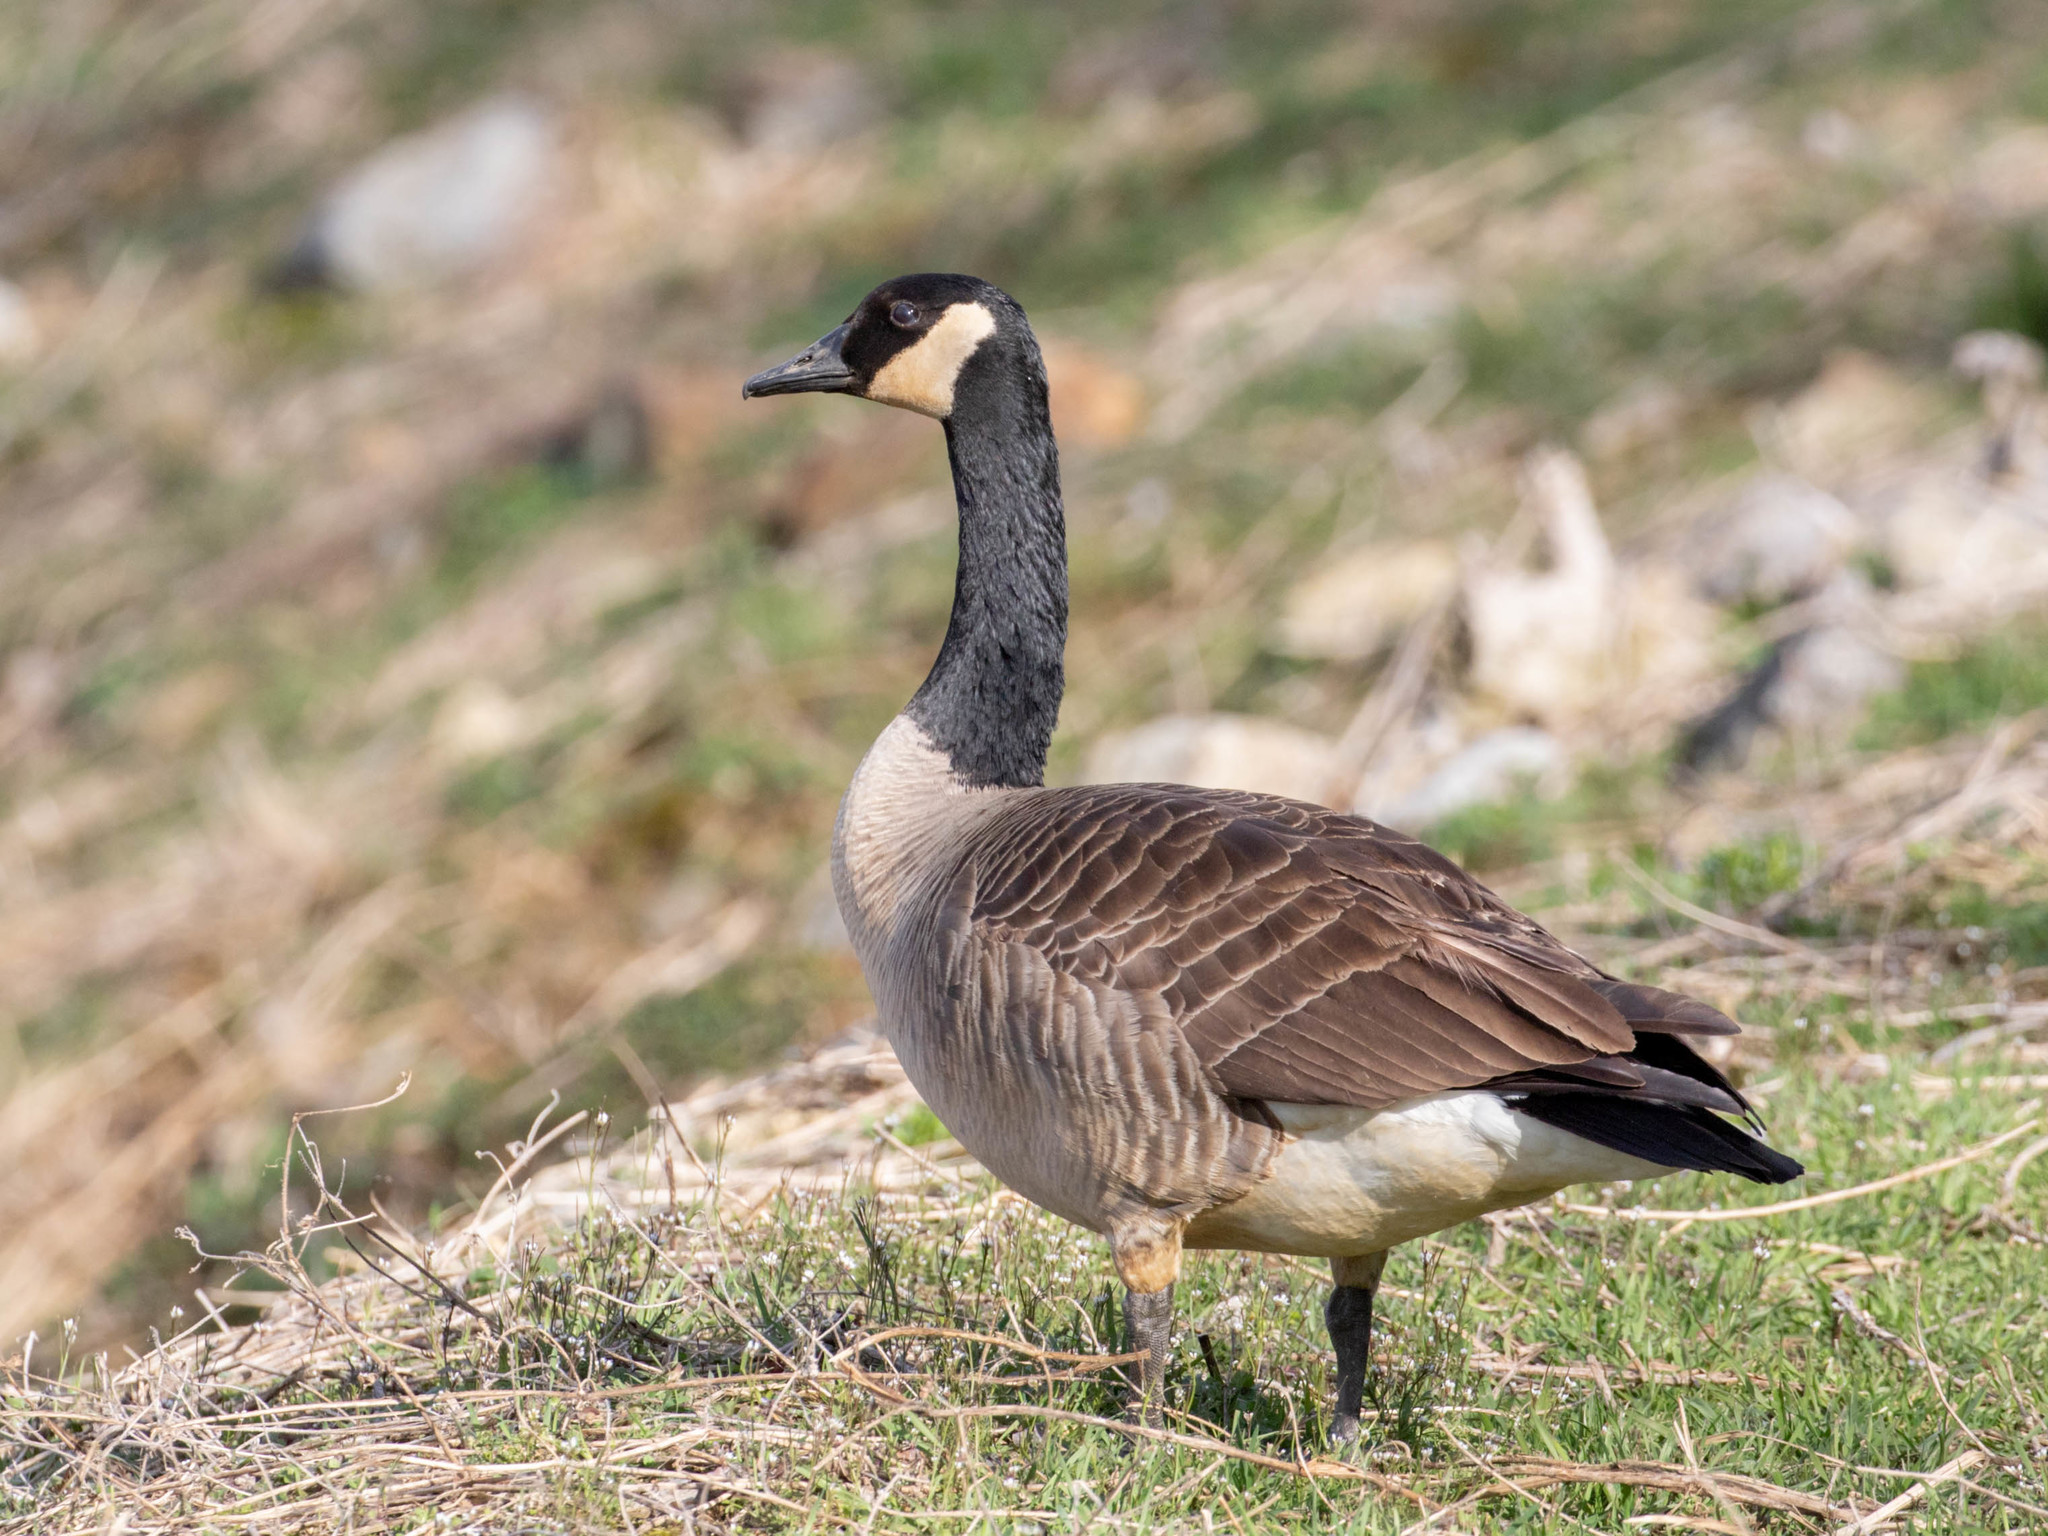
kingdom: Animalia
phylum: Chordata
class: Aves
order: Anseriformes
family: Anatidae
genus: Branta
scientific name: Branta canadensis
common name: Canada goose
